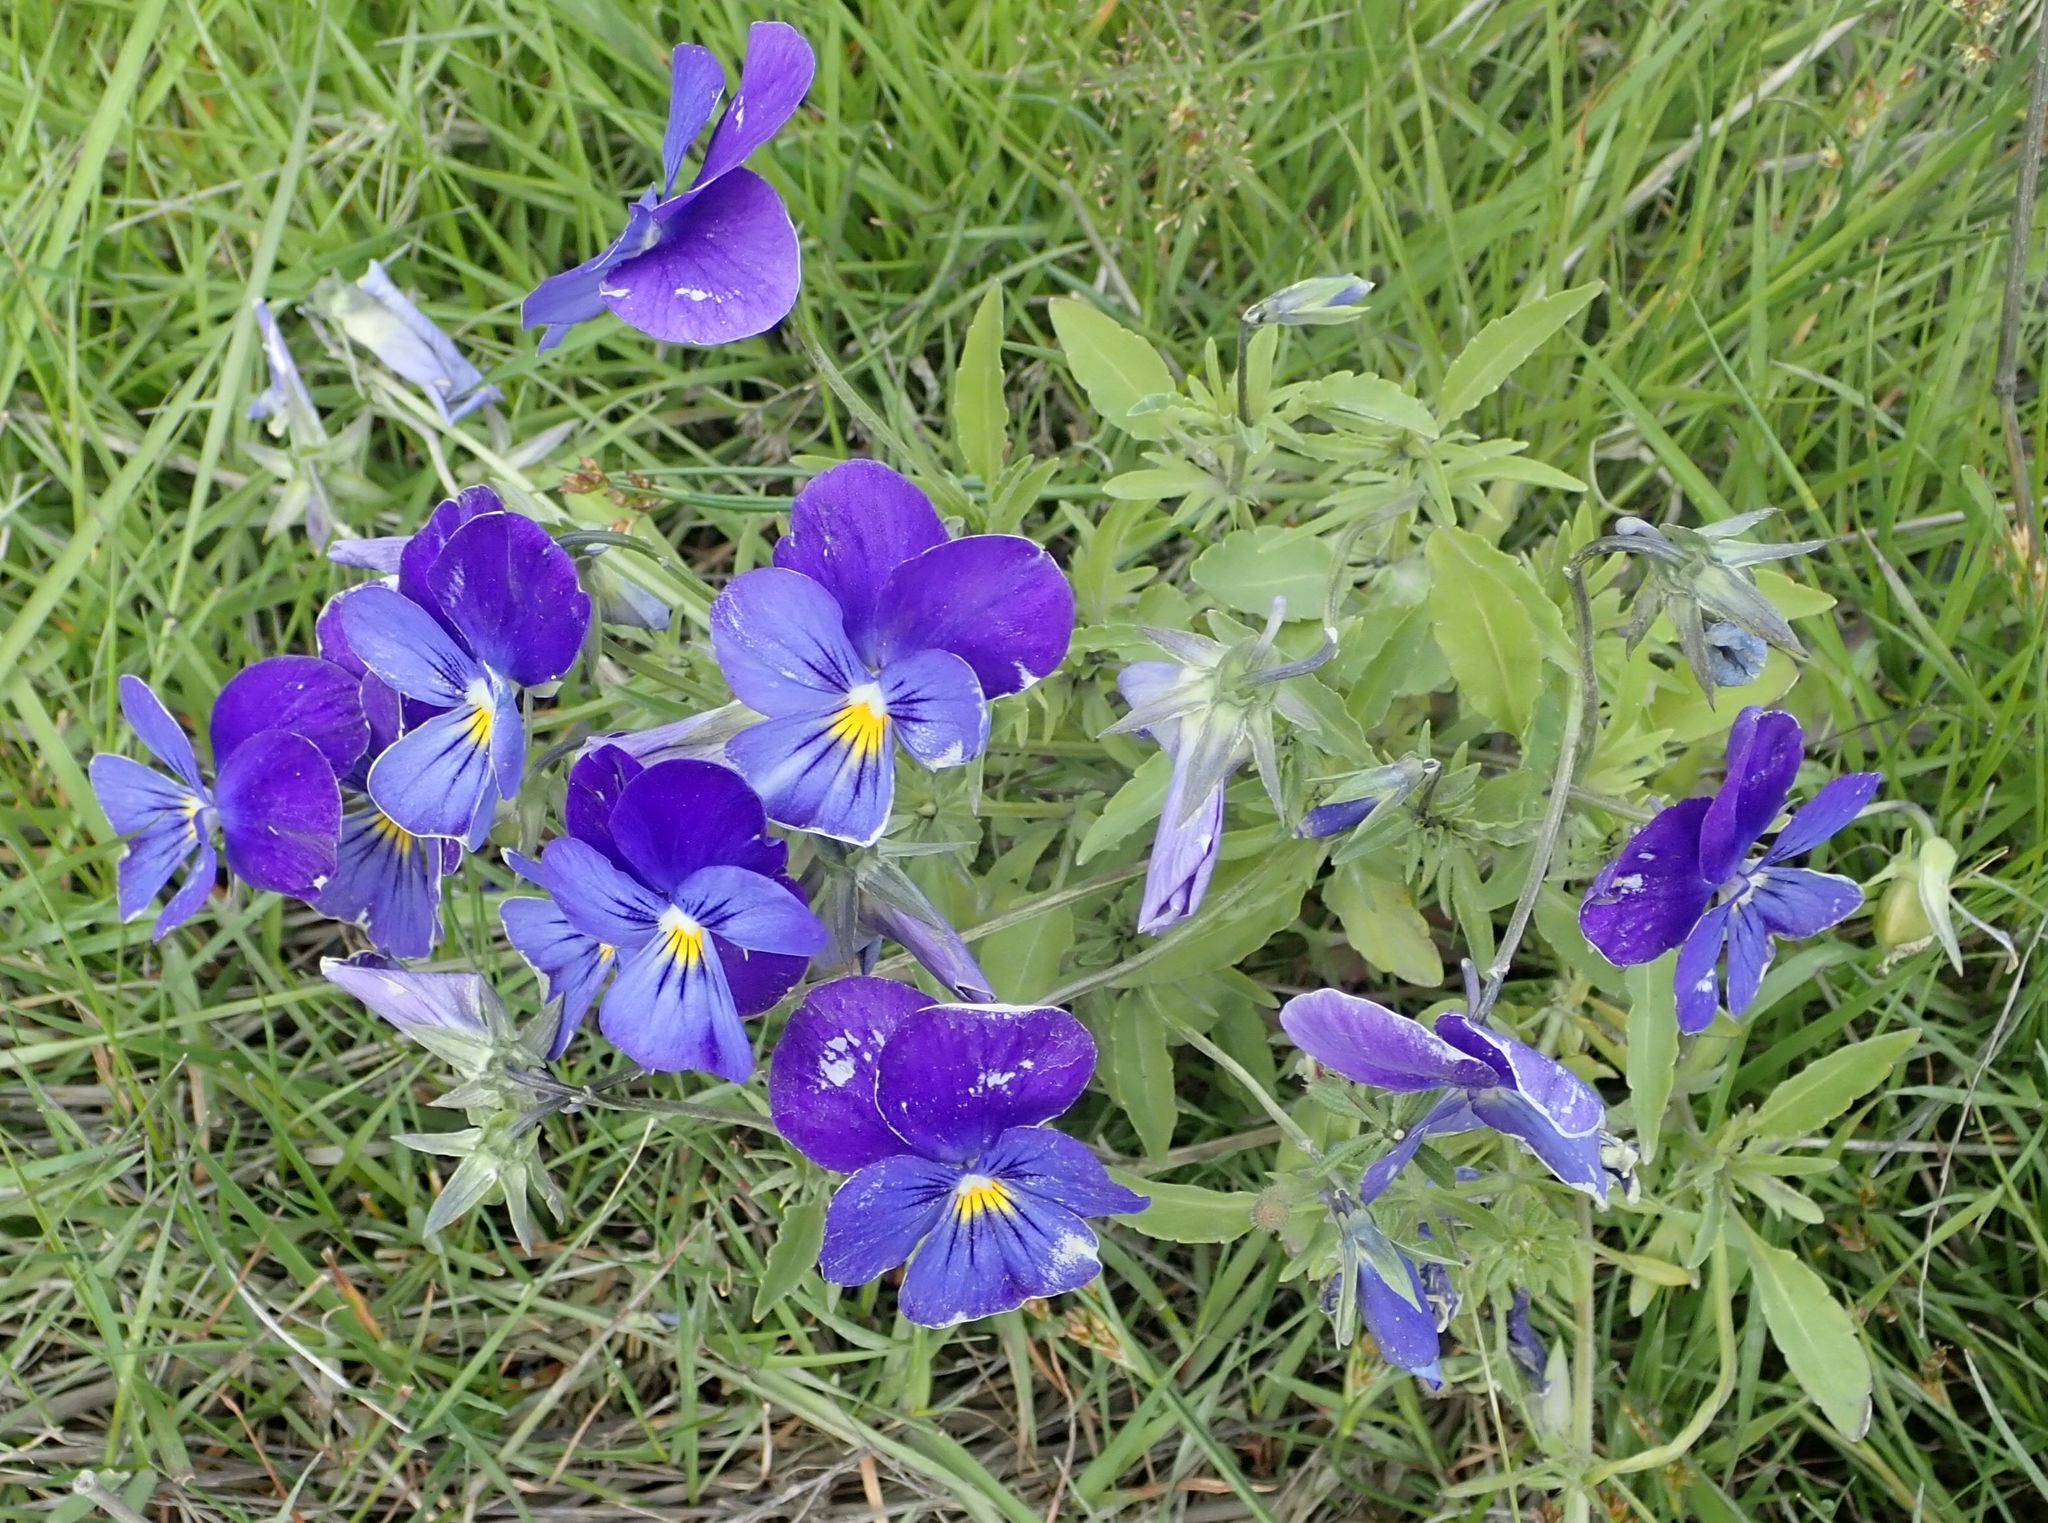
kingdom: Plantae
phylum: Tracheophyta
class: Magnoliopsida
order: Malpighiales
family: Violaceae
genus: Viola
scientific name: Viola wittrockiana
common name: Garden pansy
